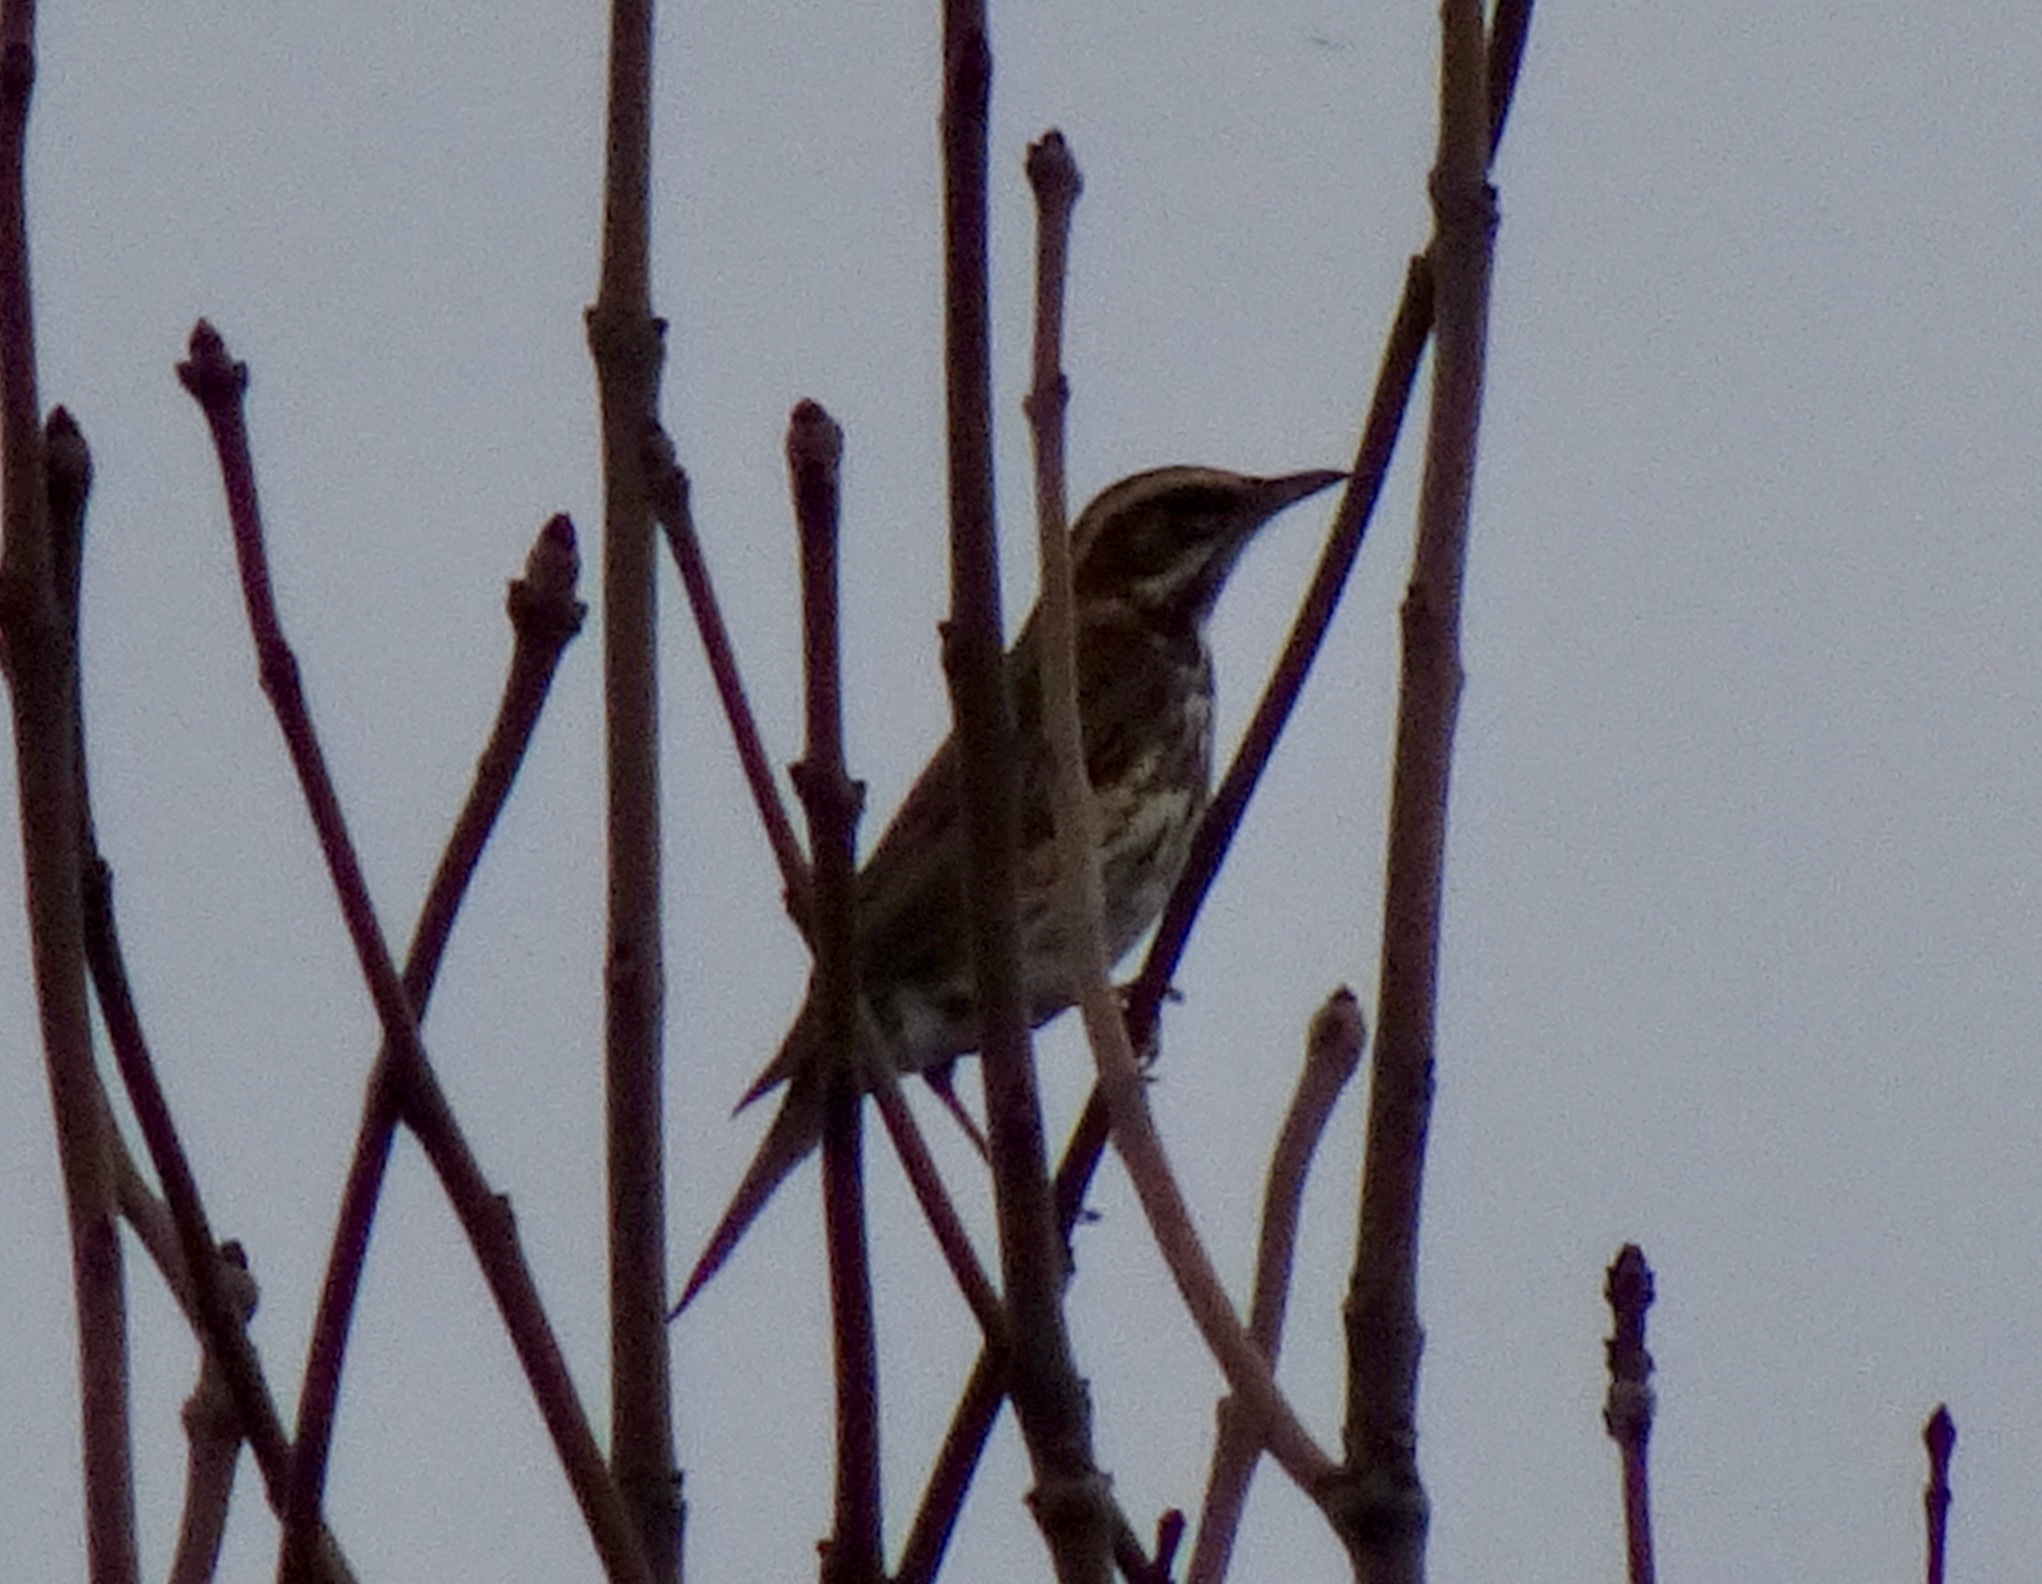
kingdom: Animalia
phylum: Chordata
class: Aves
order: Passeriformes
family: Turdidae
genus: Turdus
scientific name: Turdus iliacus
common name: Redwing
